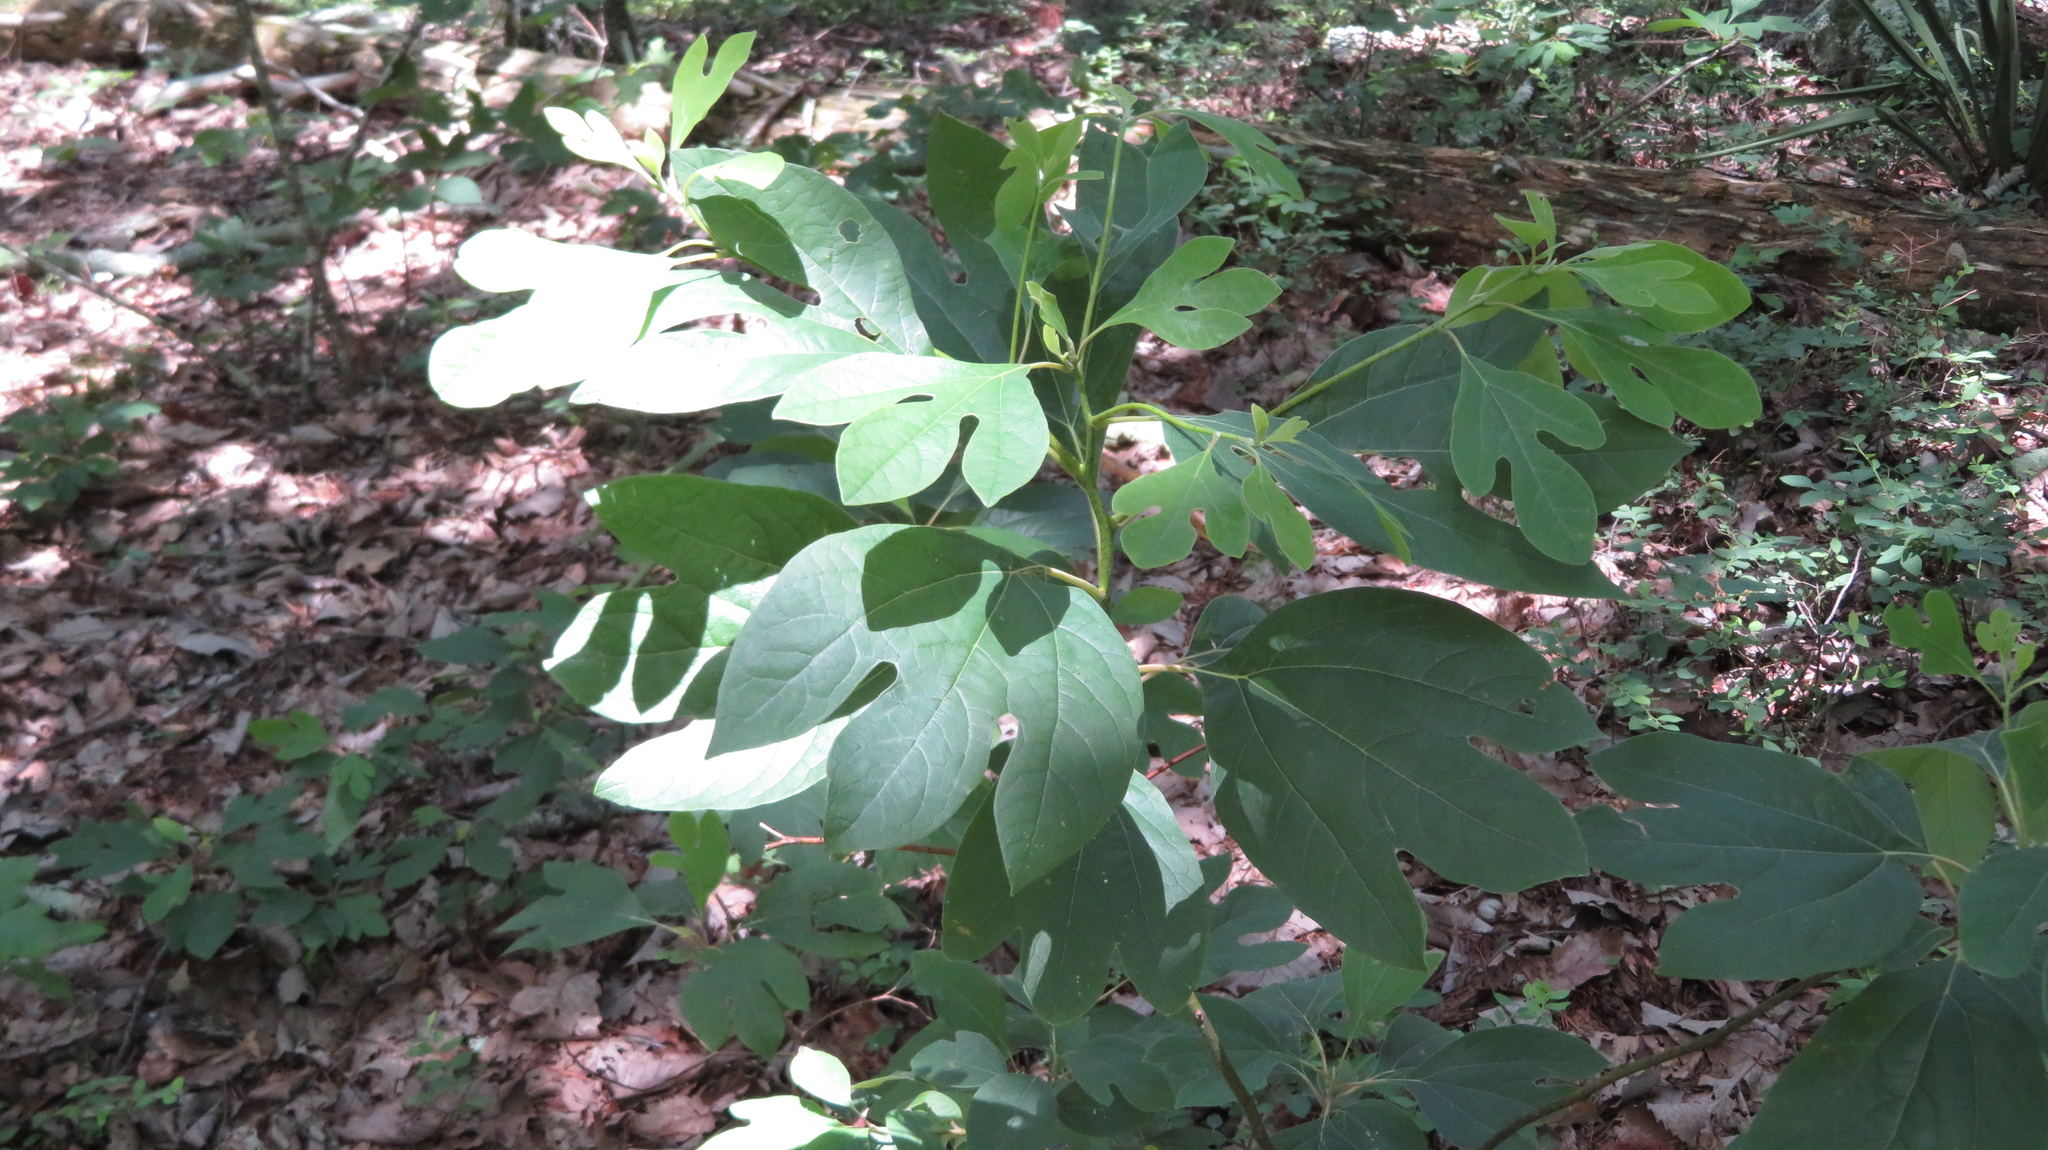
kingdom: Plantae
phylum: Tracheophyta
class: Magnoliopsida
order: Laurales
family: Lauraceae
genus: Sassafras
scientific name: Sassafras albidum
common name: Sassafras
